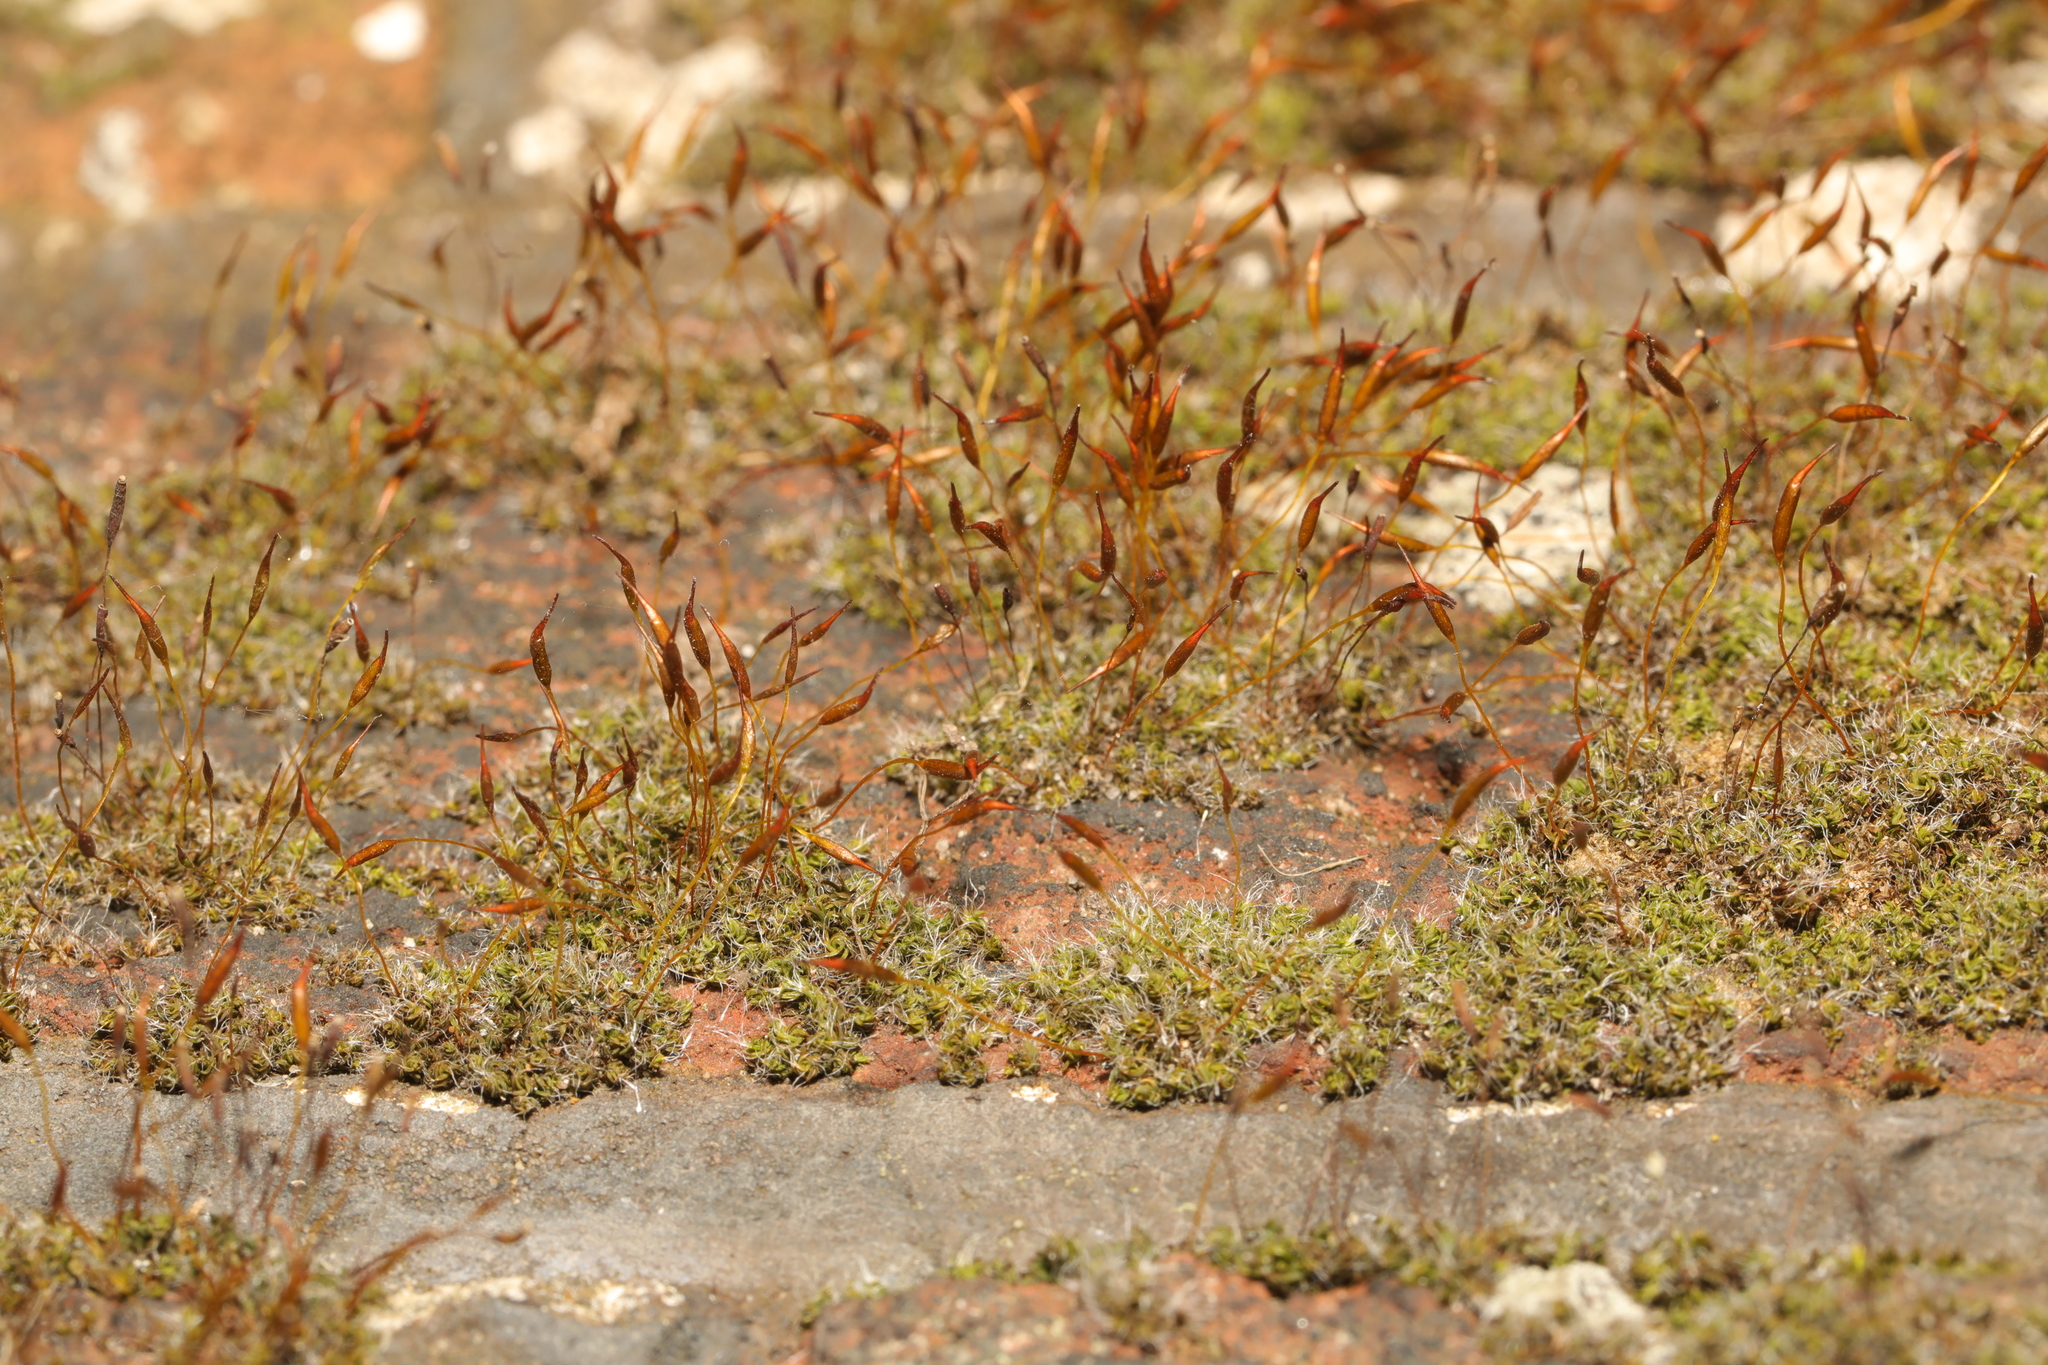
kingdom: Plantae
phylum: Bryophyta
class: Bryopsida
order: Pottiales
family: Pottiaceae
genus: Tortula
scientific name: Tortula muralis
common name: Wall screw-moss
